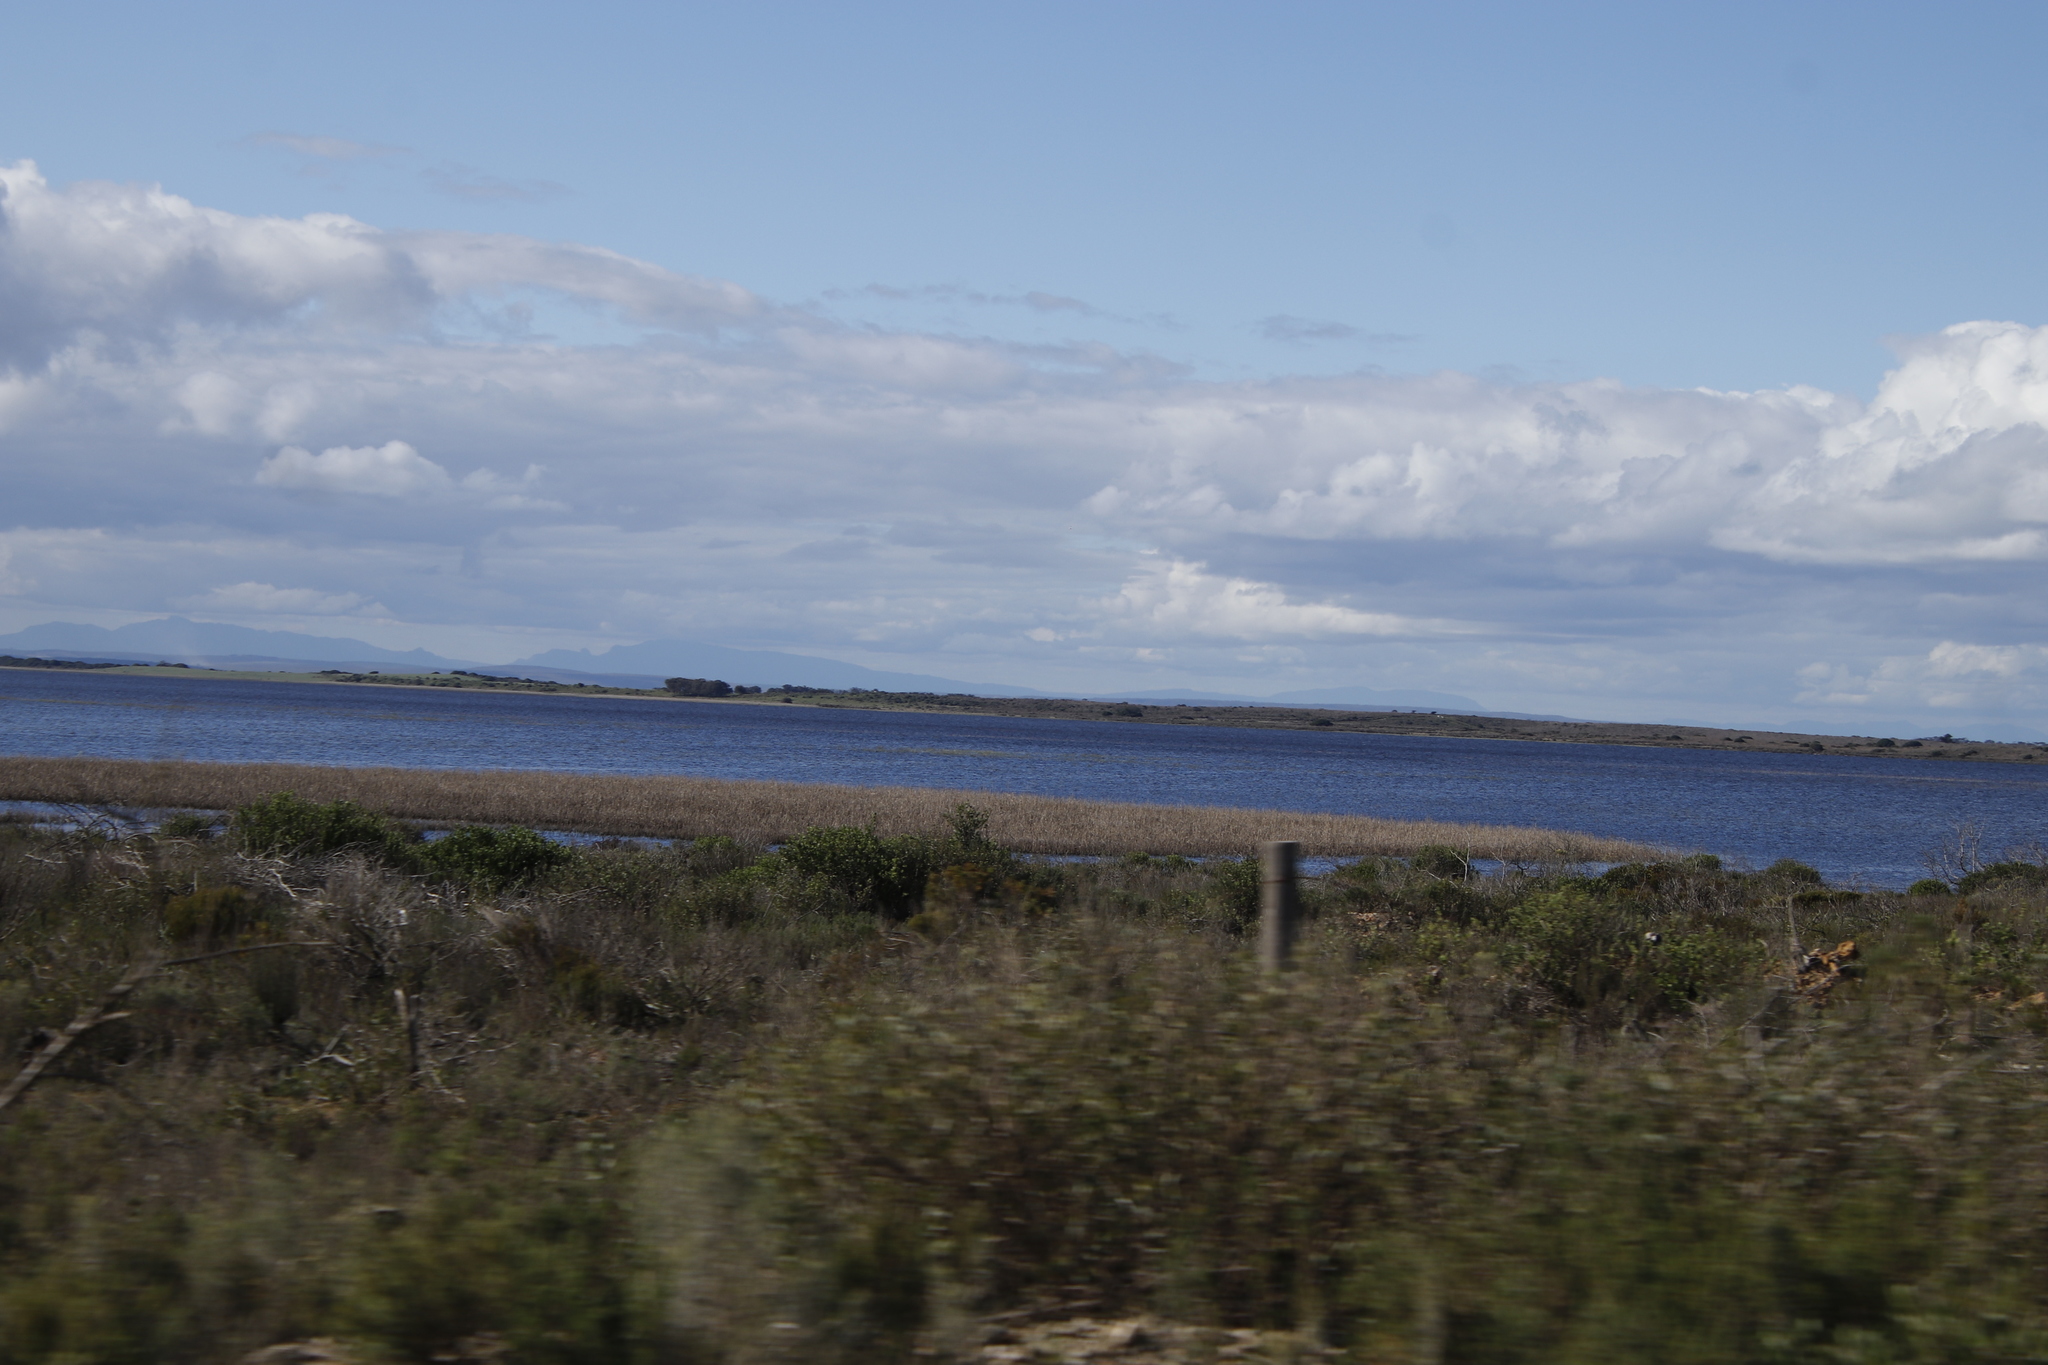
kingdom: Plantae
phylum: Tracheophyta
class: Liliopsida
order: Poales
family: Poaceae
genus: Phragmites
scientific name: Phragmites australis
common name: Common reed
